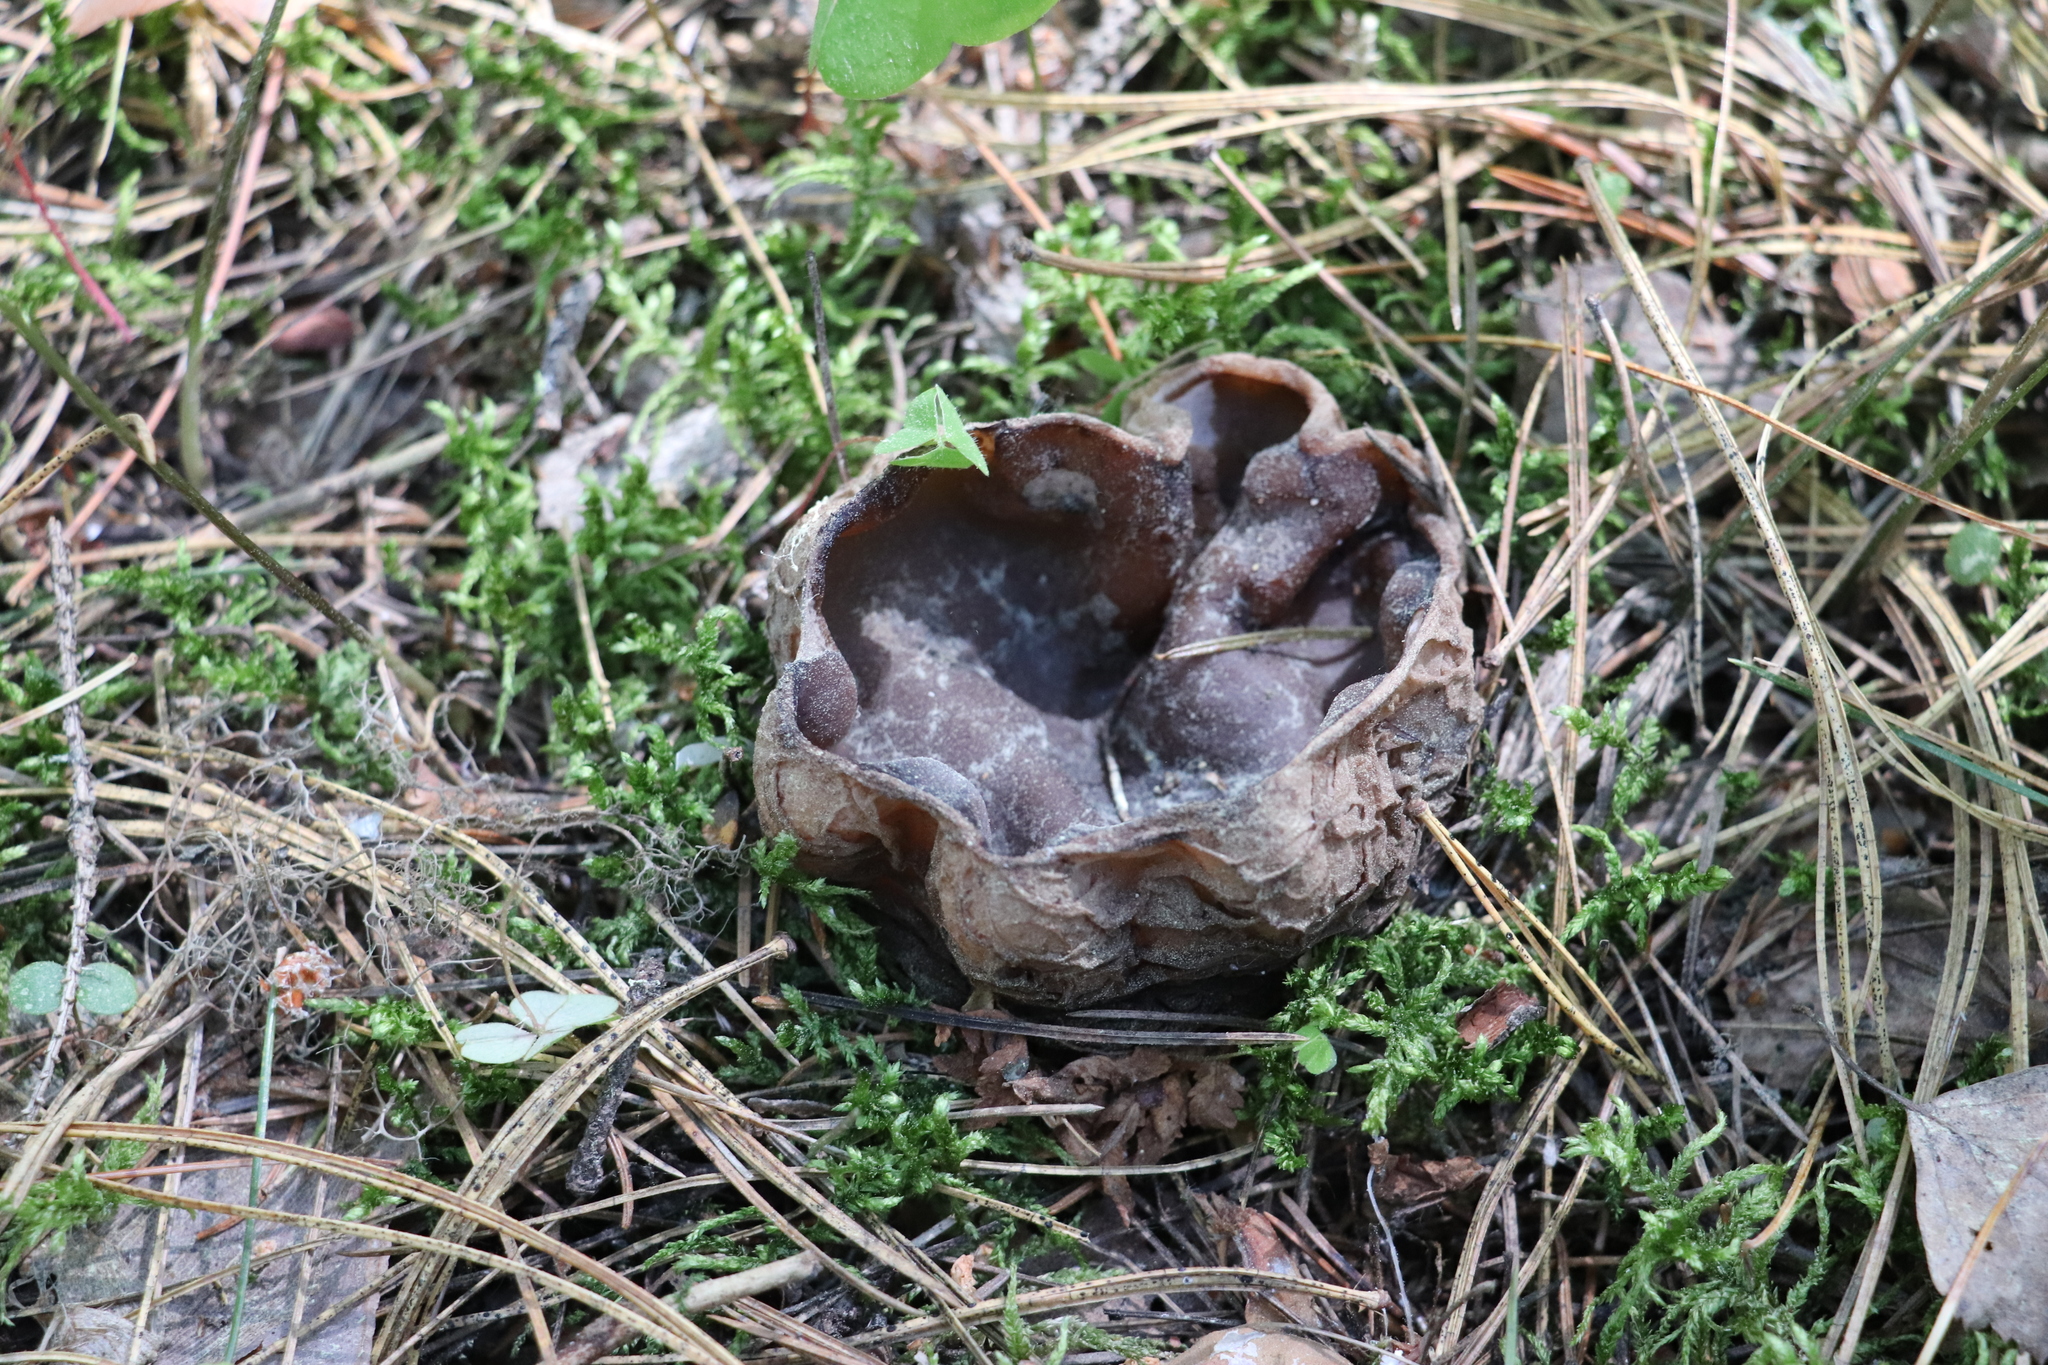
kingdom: Fungi
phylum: Ascomycota
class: Pezizomycetes
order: Pezizales
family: Sarcosomataceae
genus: Sarcosoma
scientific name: Sarcosoma globosum
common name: Charred-pancake cup
